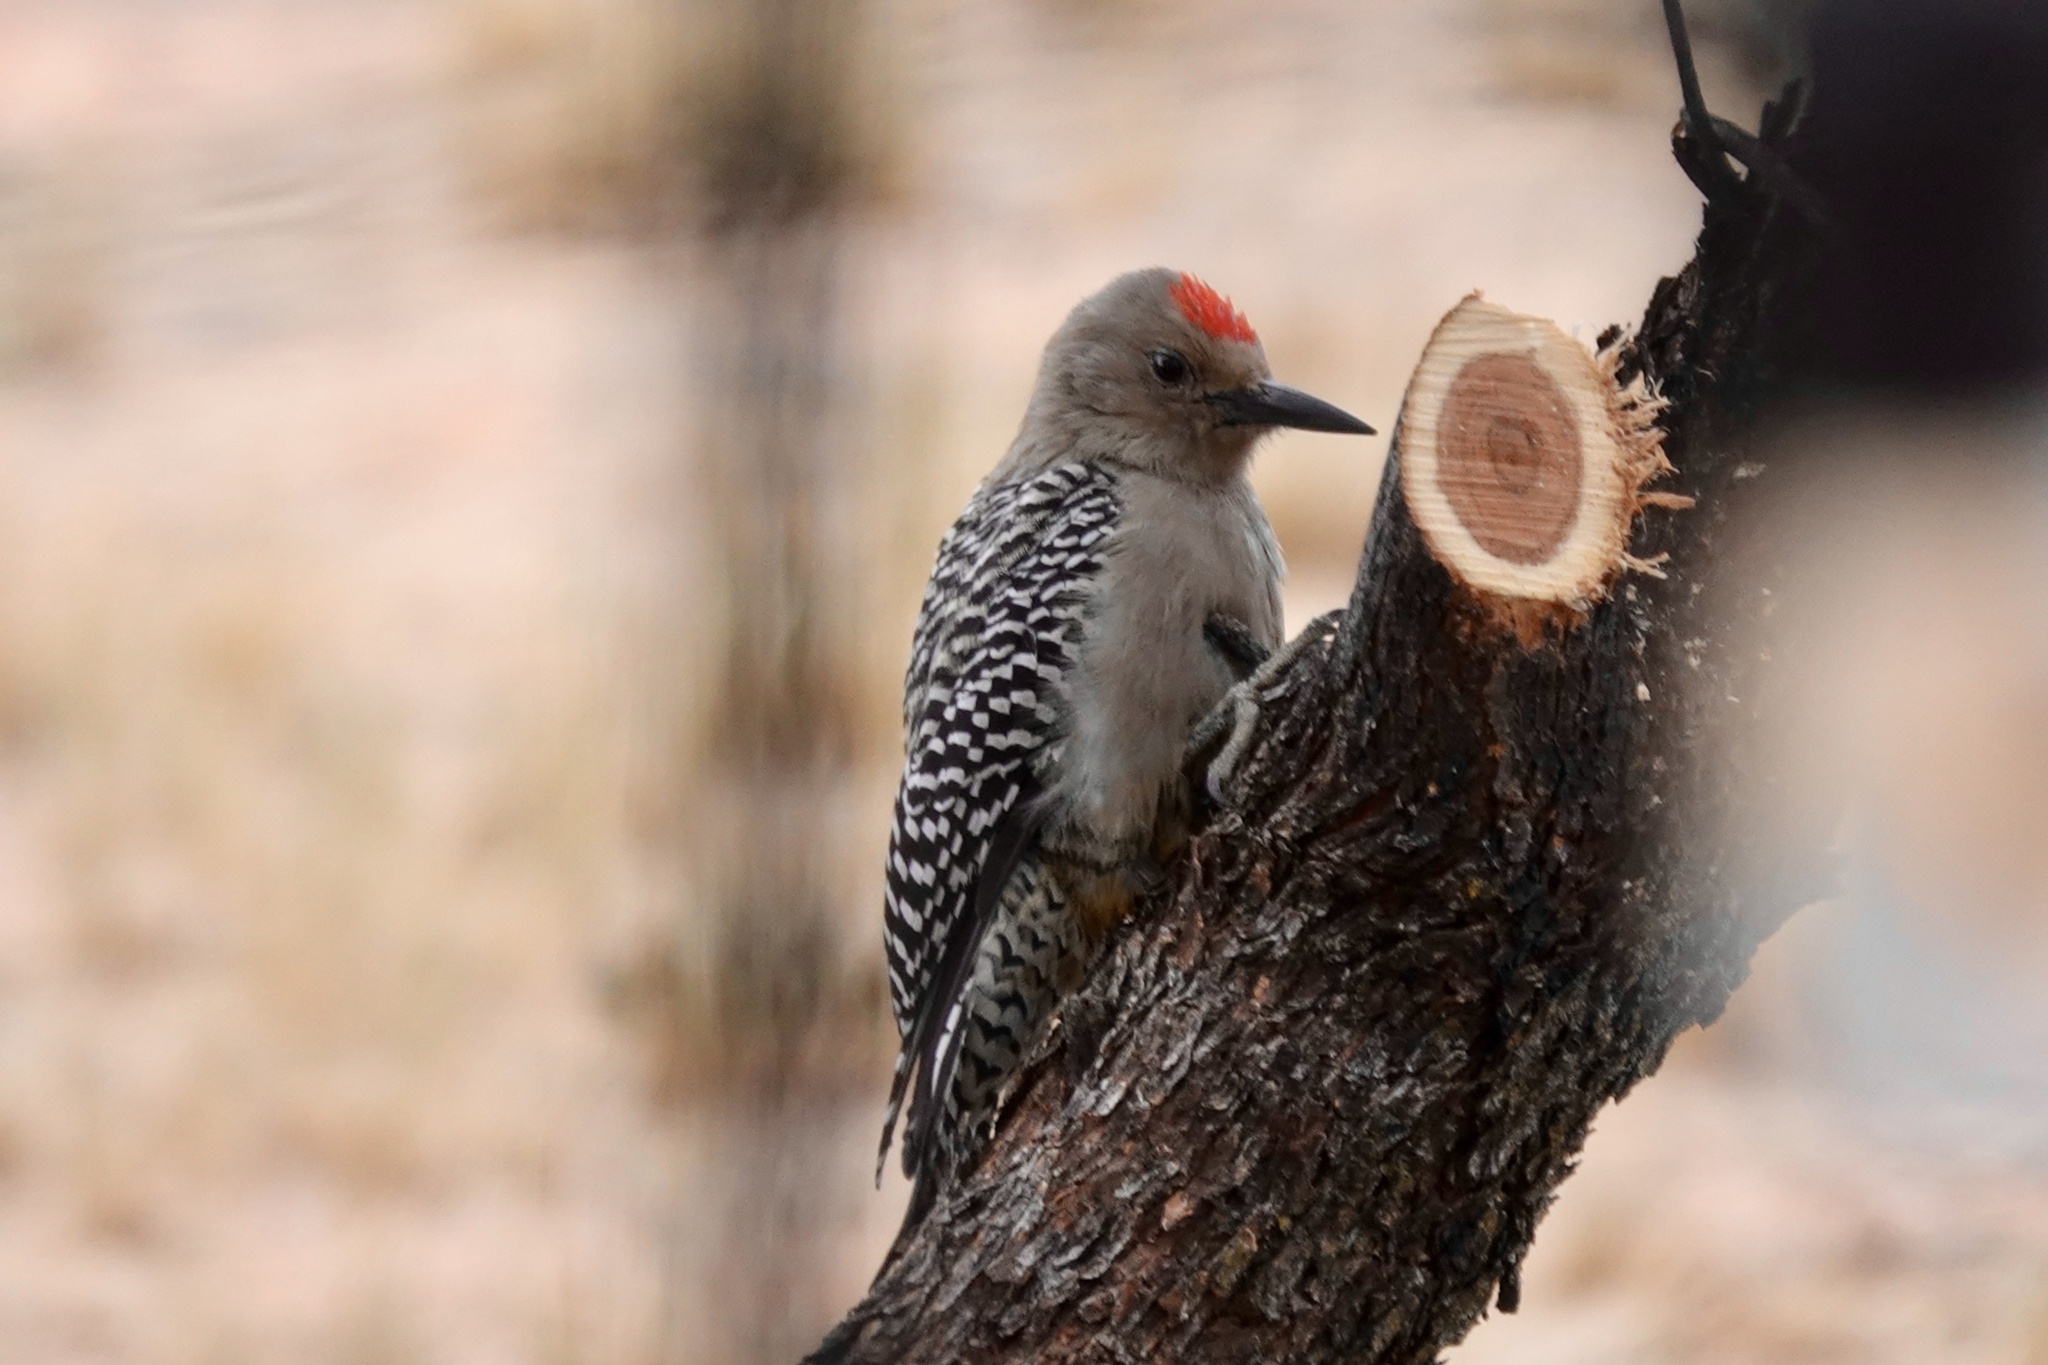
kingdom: Animalia
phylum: Chordata
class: Aves
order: Piciformes
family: Picidae
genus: Melanerpes
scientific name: Melanerpes uropygialis
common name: Gila woodpecker
